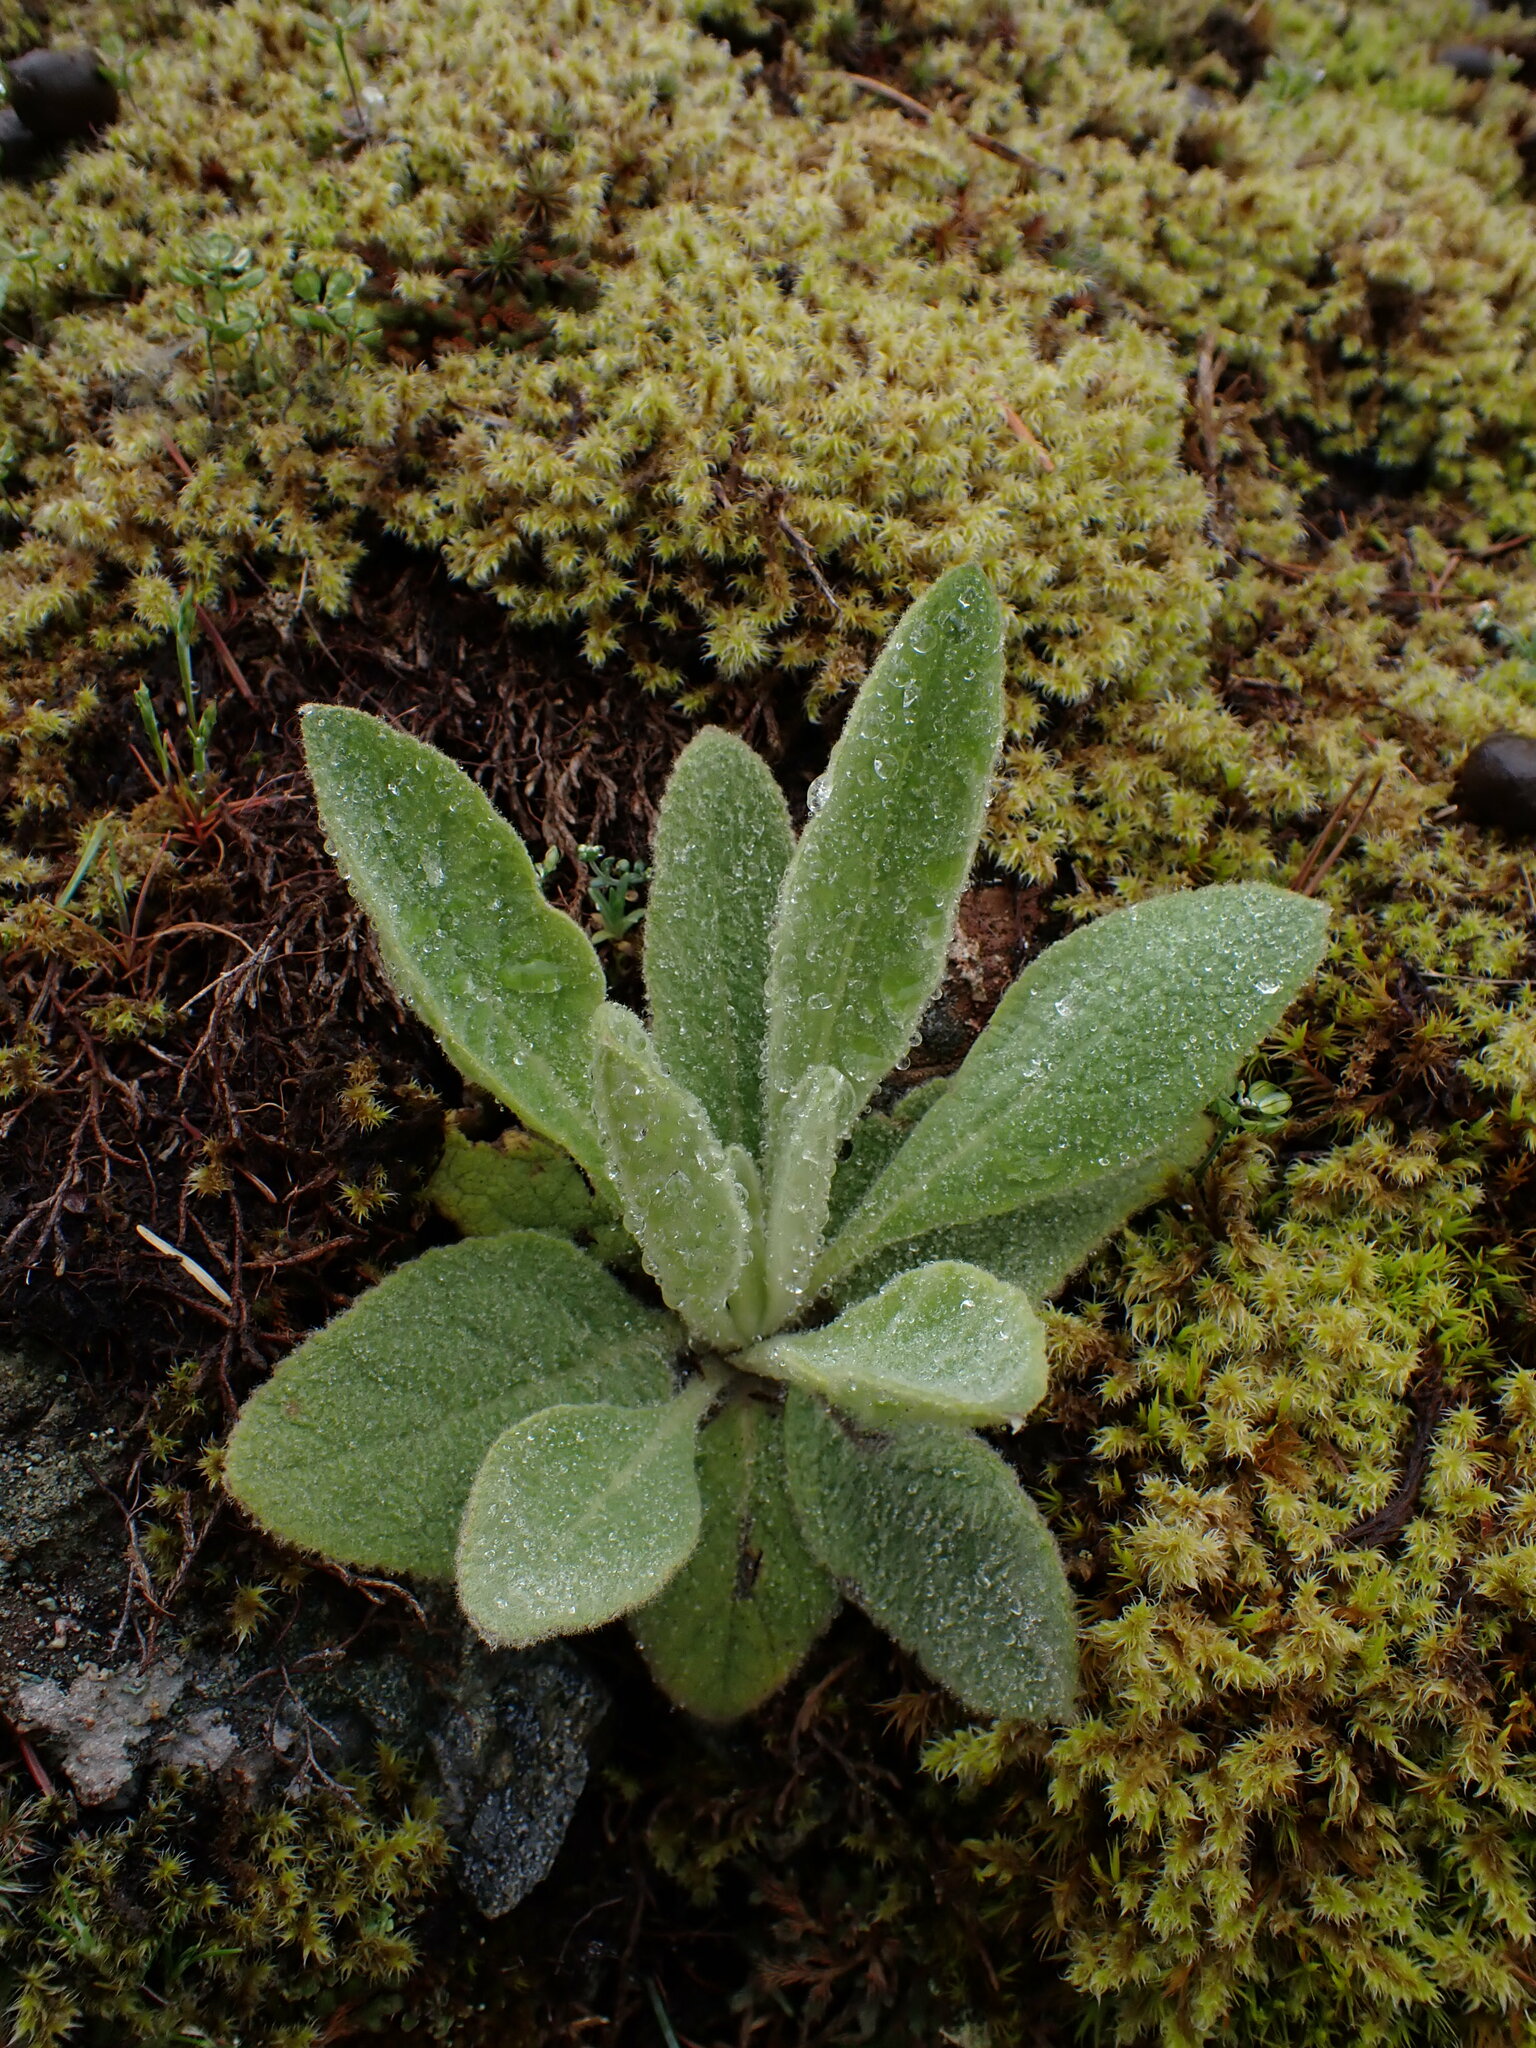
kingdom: Plantae
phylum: Tracheophyta
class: Magnoliopsida
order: Lamiales
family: Scrophulariaceae
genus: Verbascum
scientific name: Verbascum thapsus
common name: Common mullein
